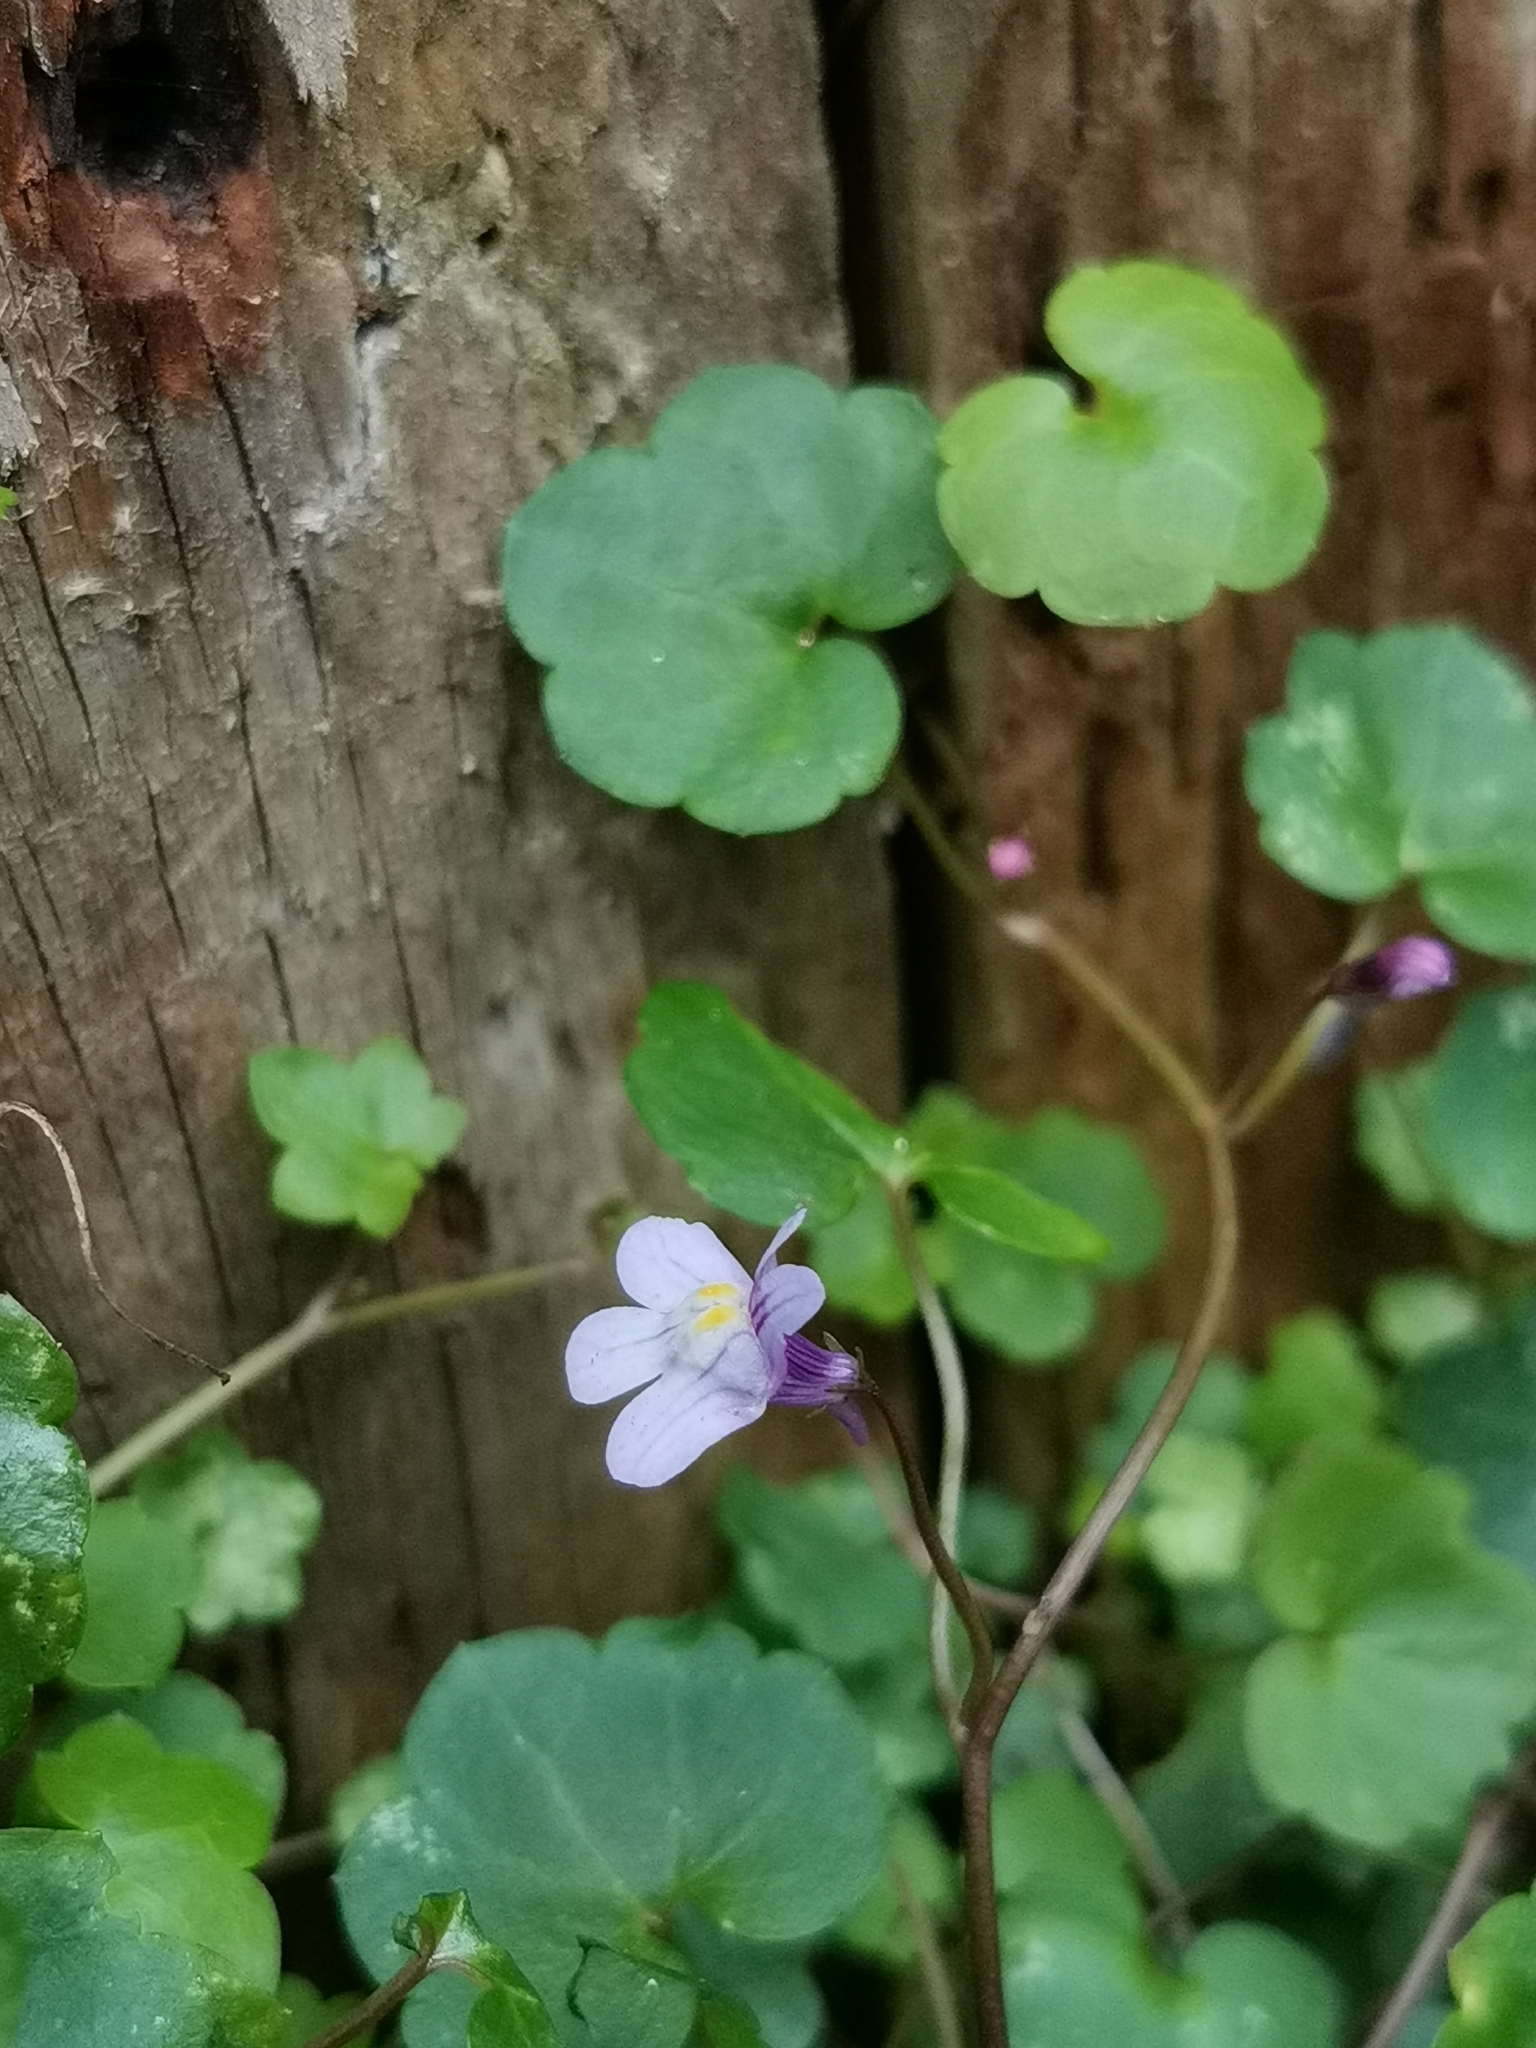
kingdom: Plantae
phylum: Tracheophyta
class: Magnoliopsida
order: Lamiales
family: Plantaginaceae
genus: Cymbalaria
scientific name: Cymbalaria muralis
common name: Ivy-leaved toadflax
